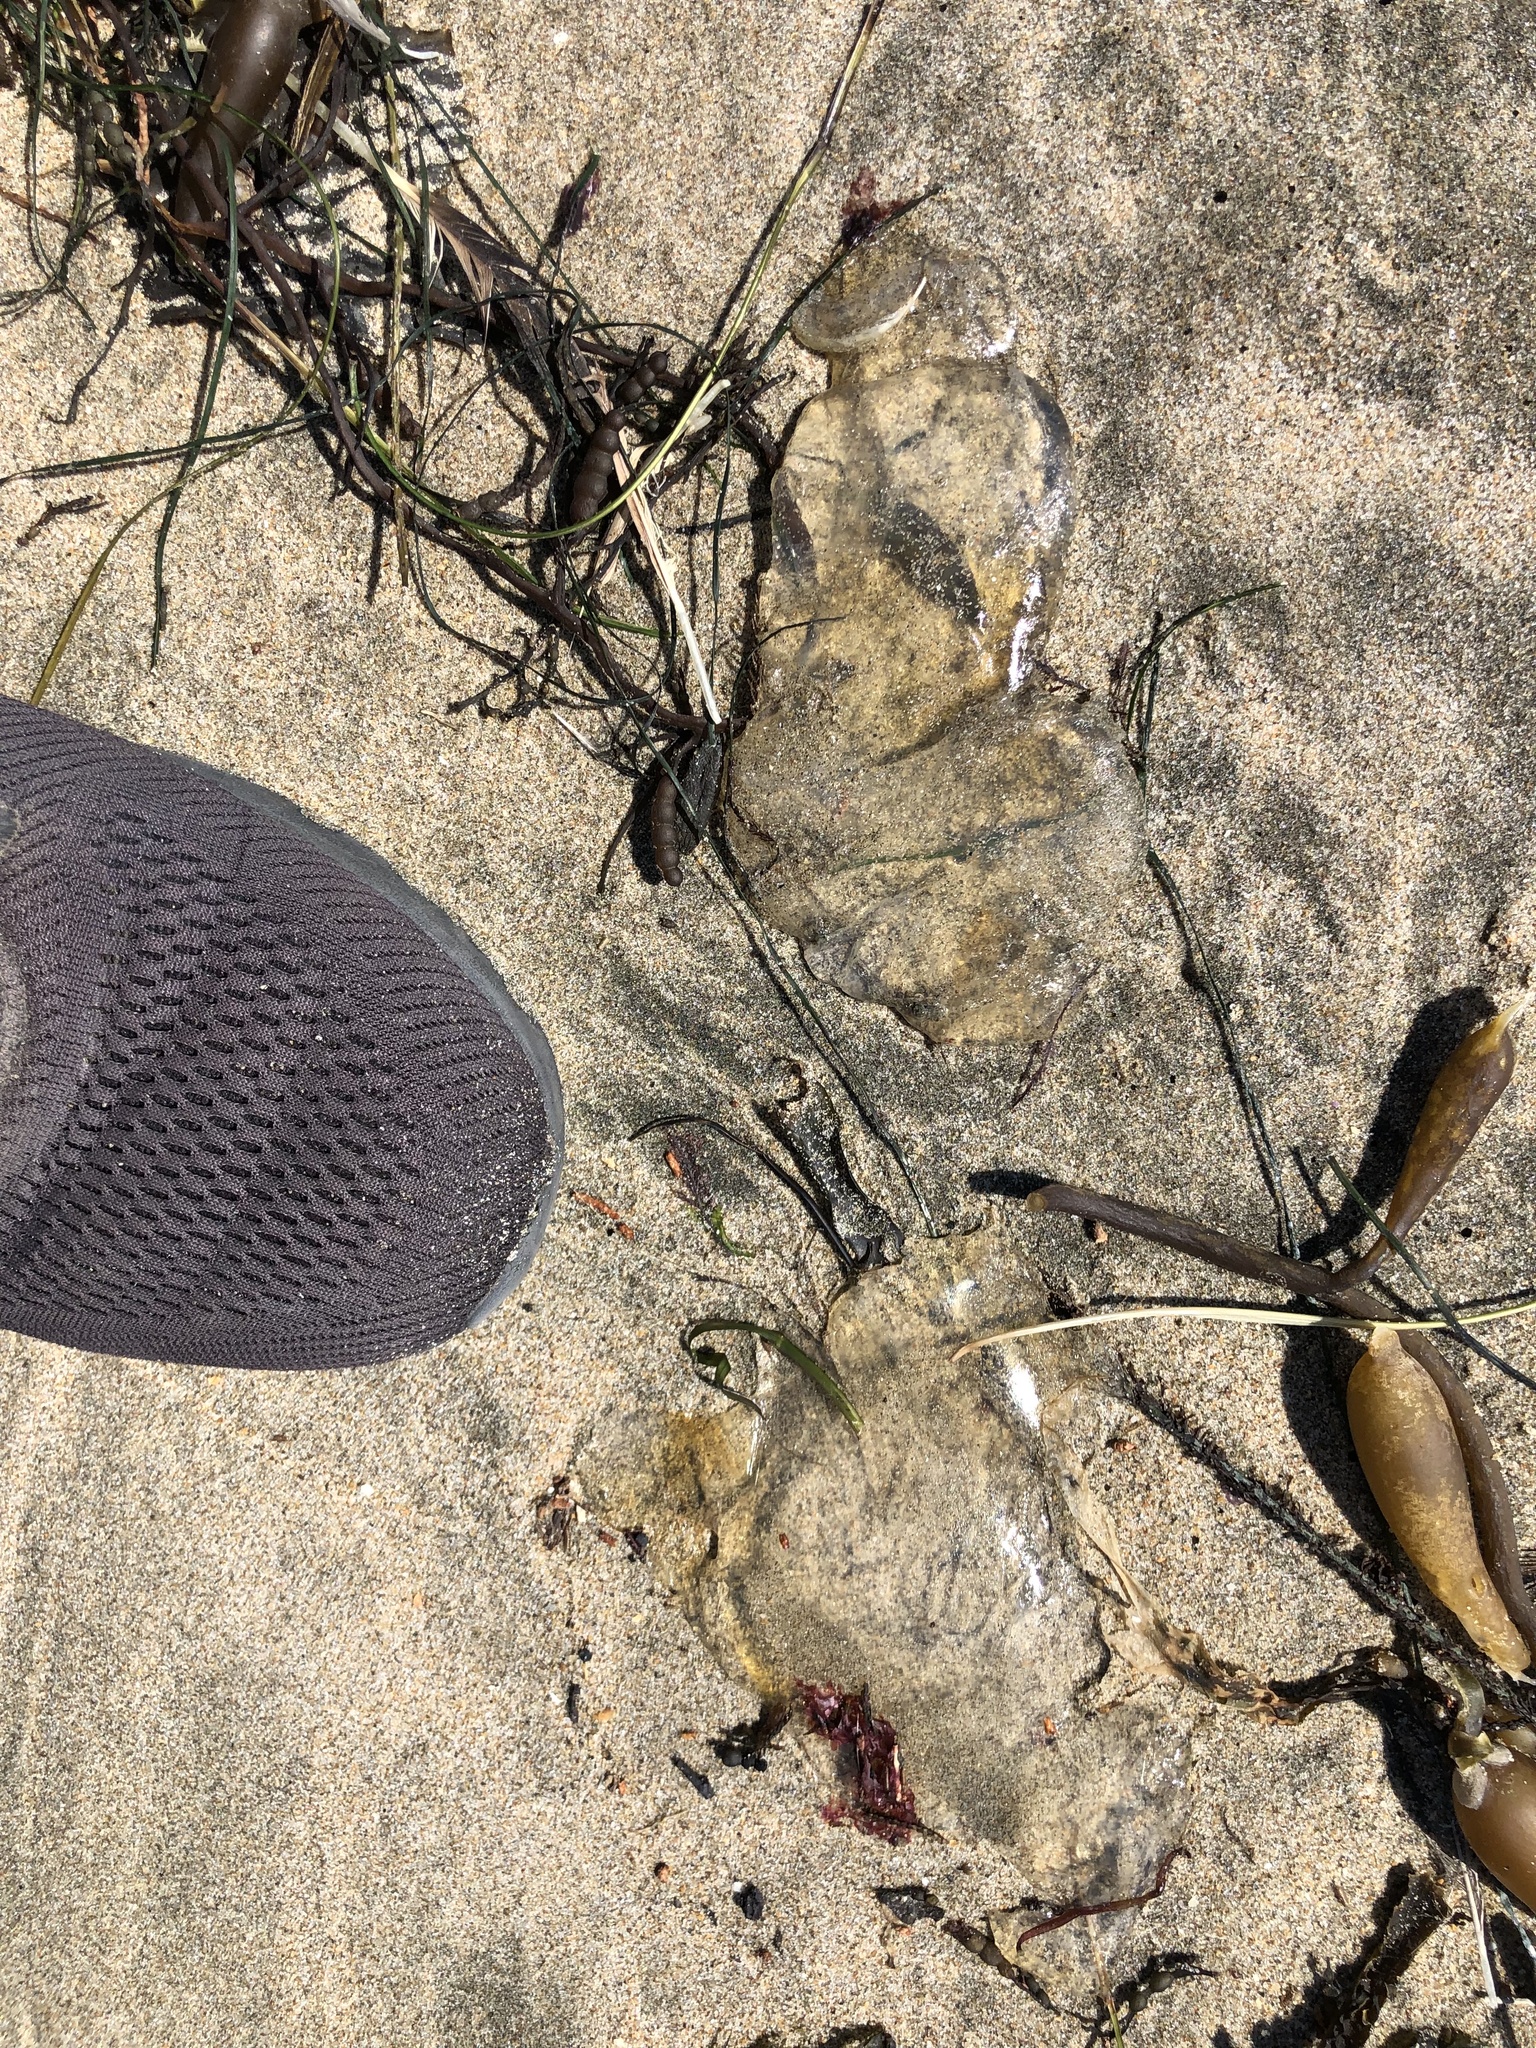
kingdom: Animalia
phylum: Cnidaria
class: Scyphozoa
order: Semaeostomeae
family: Pelagiidae
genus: Chrysaora
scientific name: Chrysaora fuscescens
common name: Sea nettle
